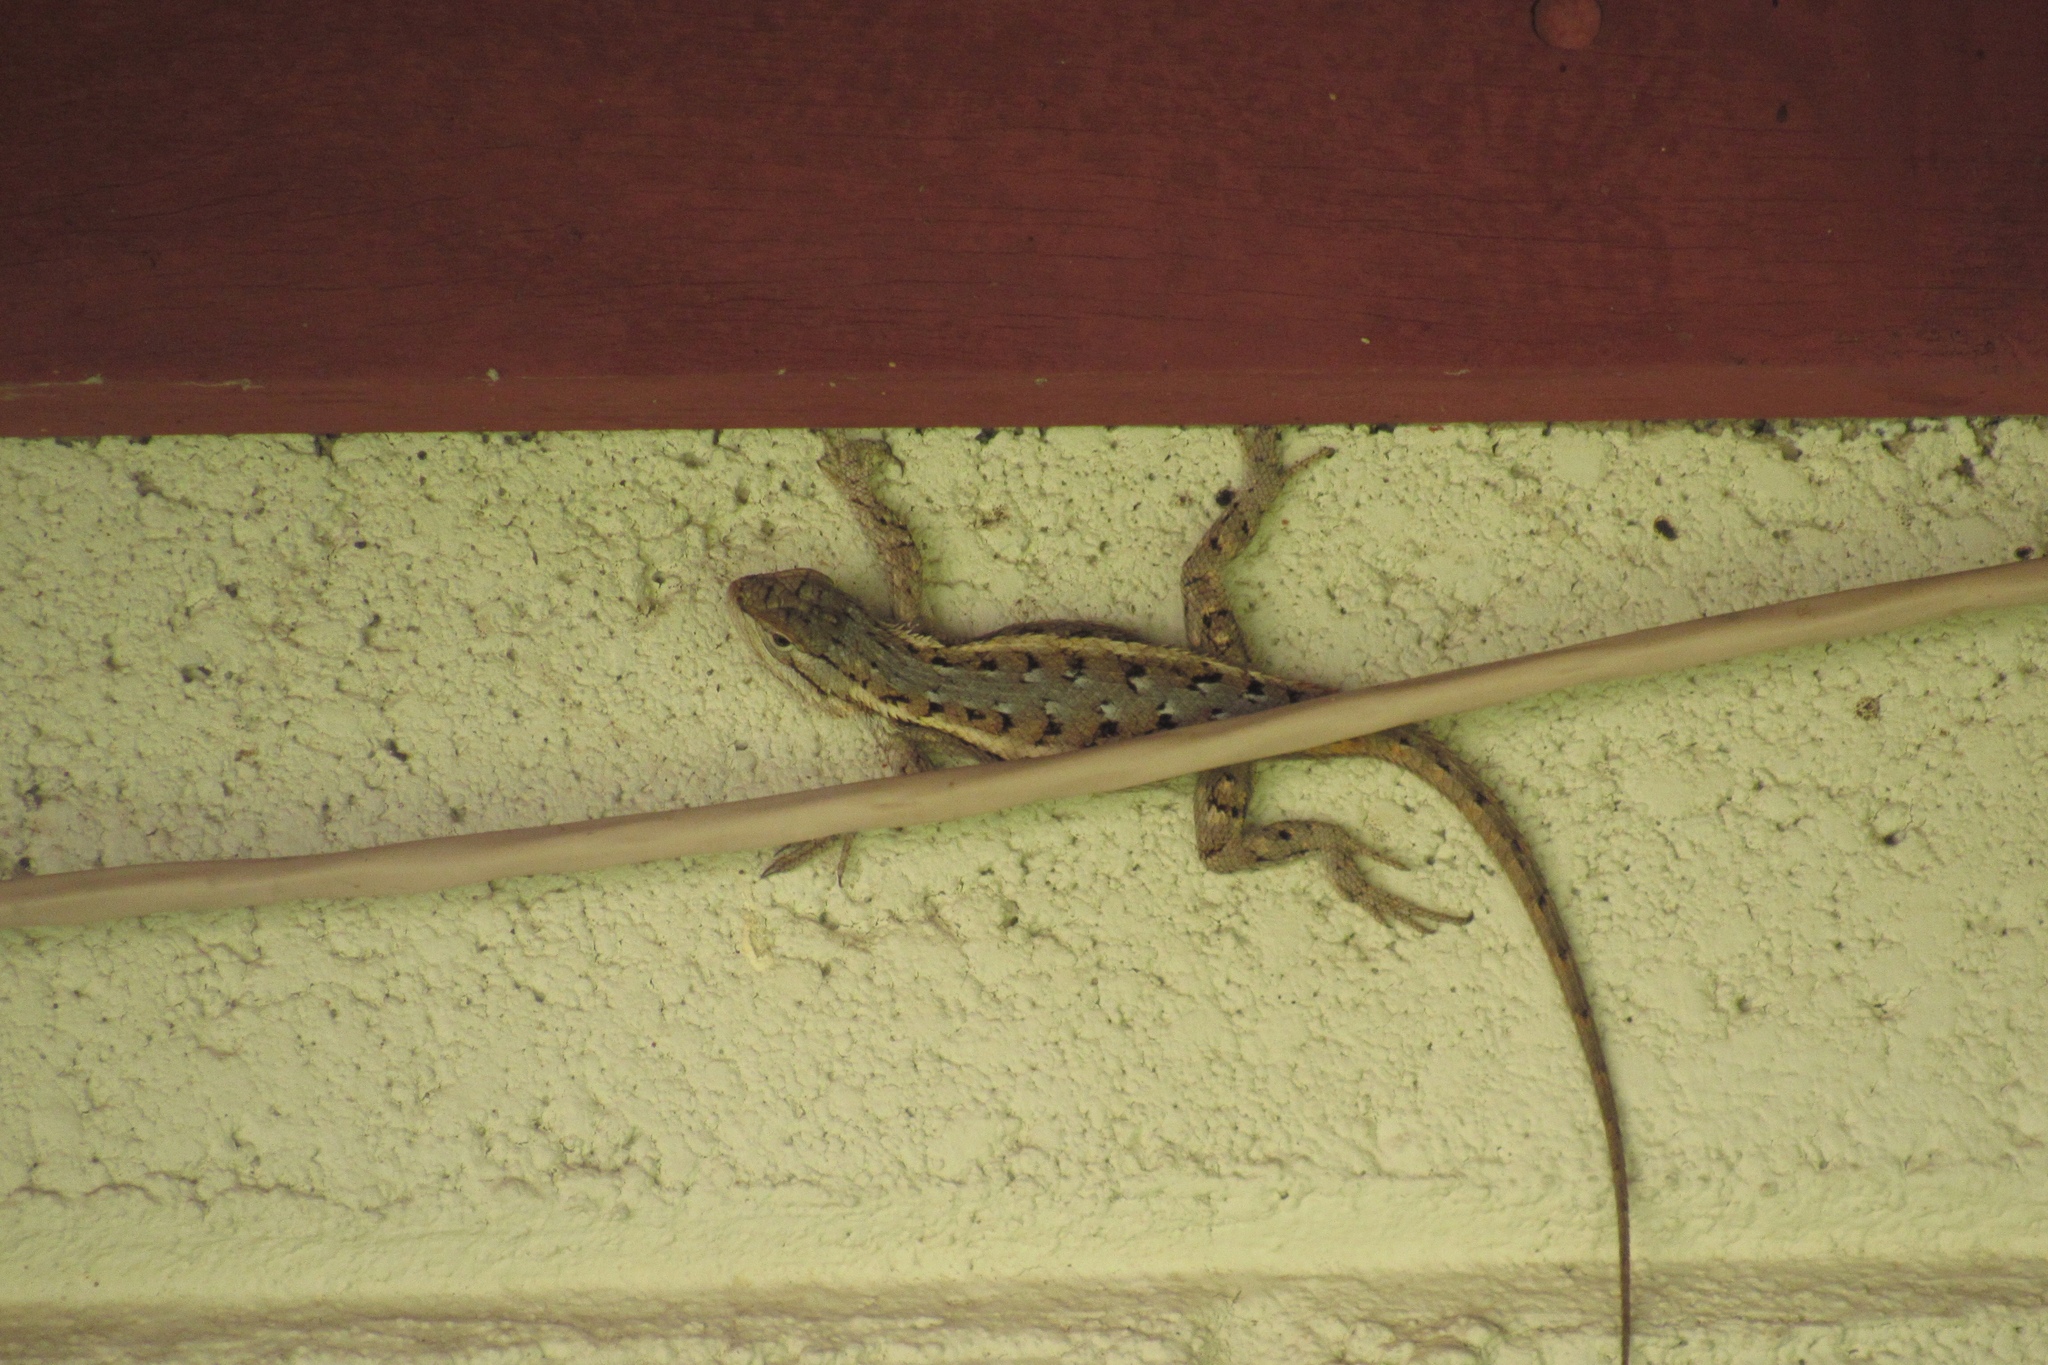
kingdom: Animalia
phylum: Chordata
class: Squamata
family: Phrynosomatidae
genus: Sceloporus
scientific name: Sceloporus cowlesi
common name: White sands prairie lizard
